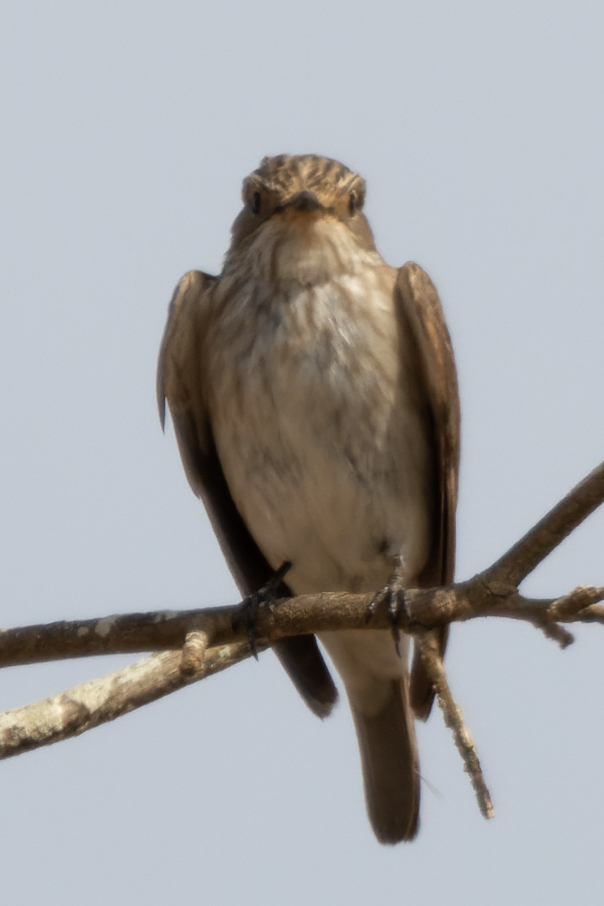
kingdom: Animalia
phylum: Chordata
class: Aves
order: Passeriformes
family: Muscicapidae
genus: Muscicapa
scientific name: Muscicapa striata
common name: Spotted flycatcher
